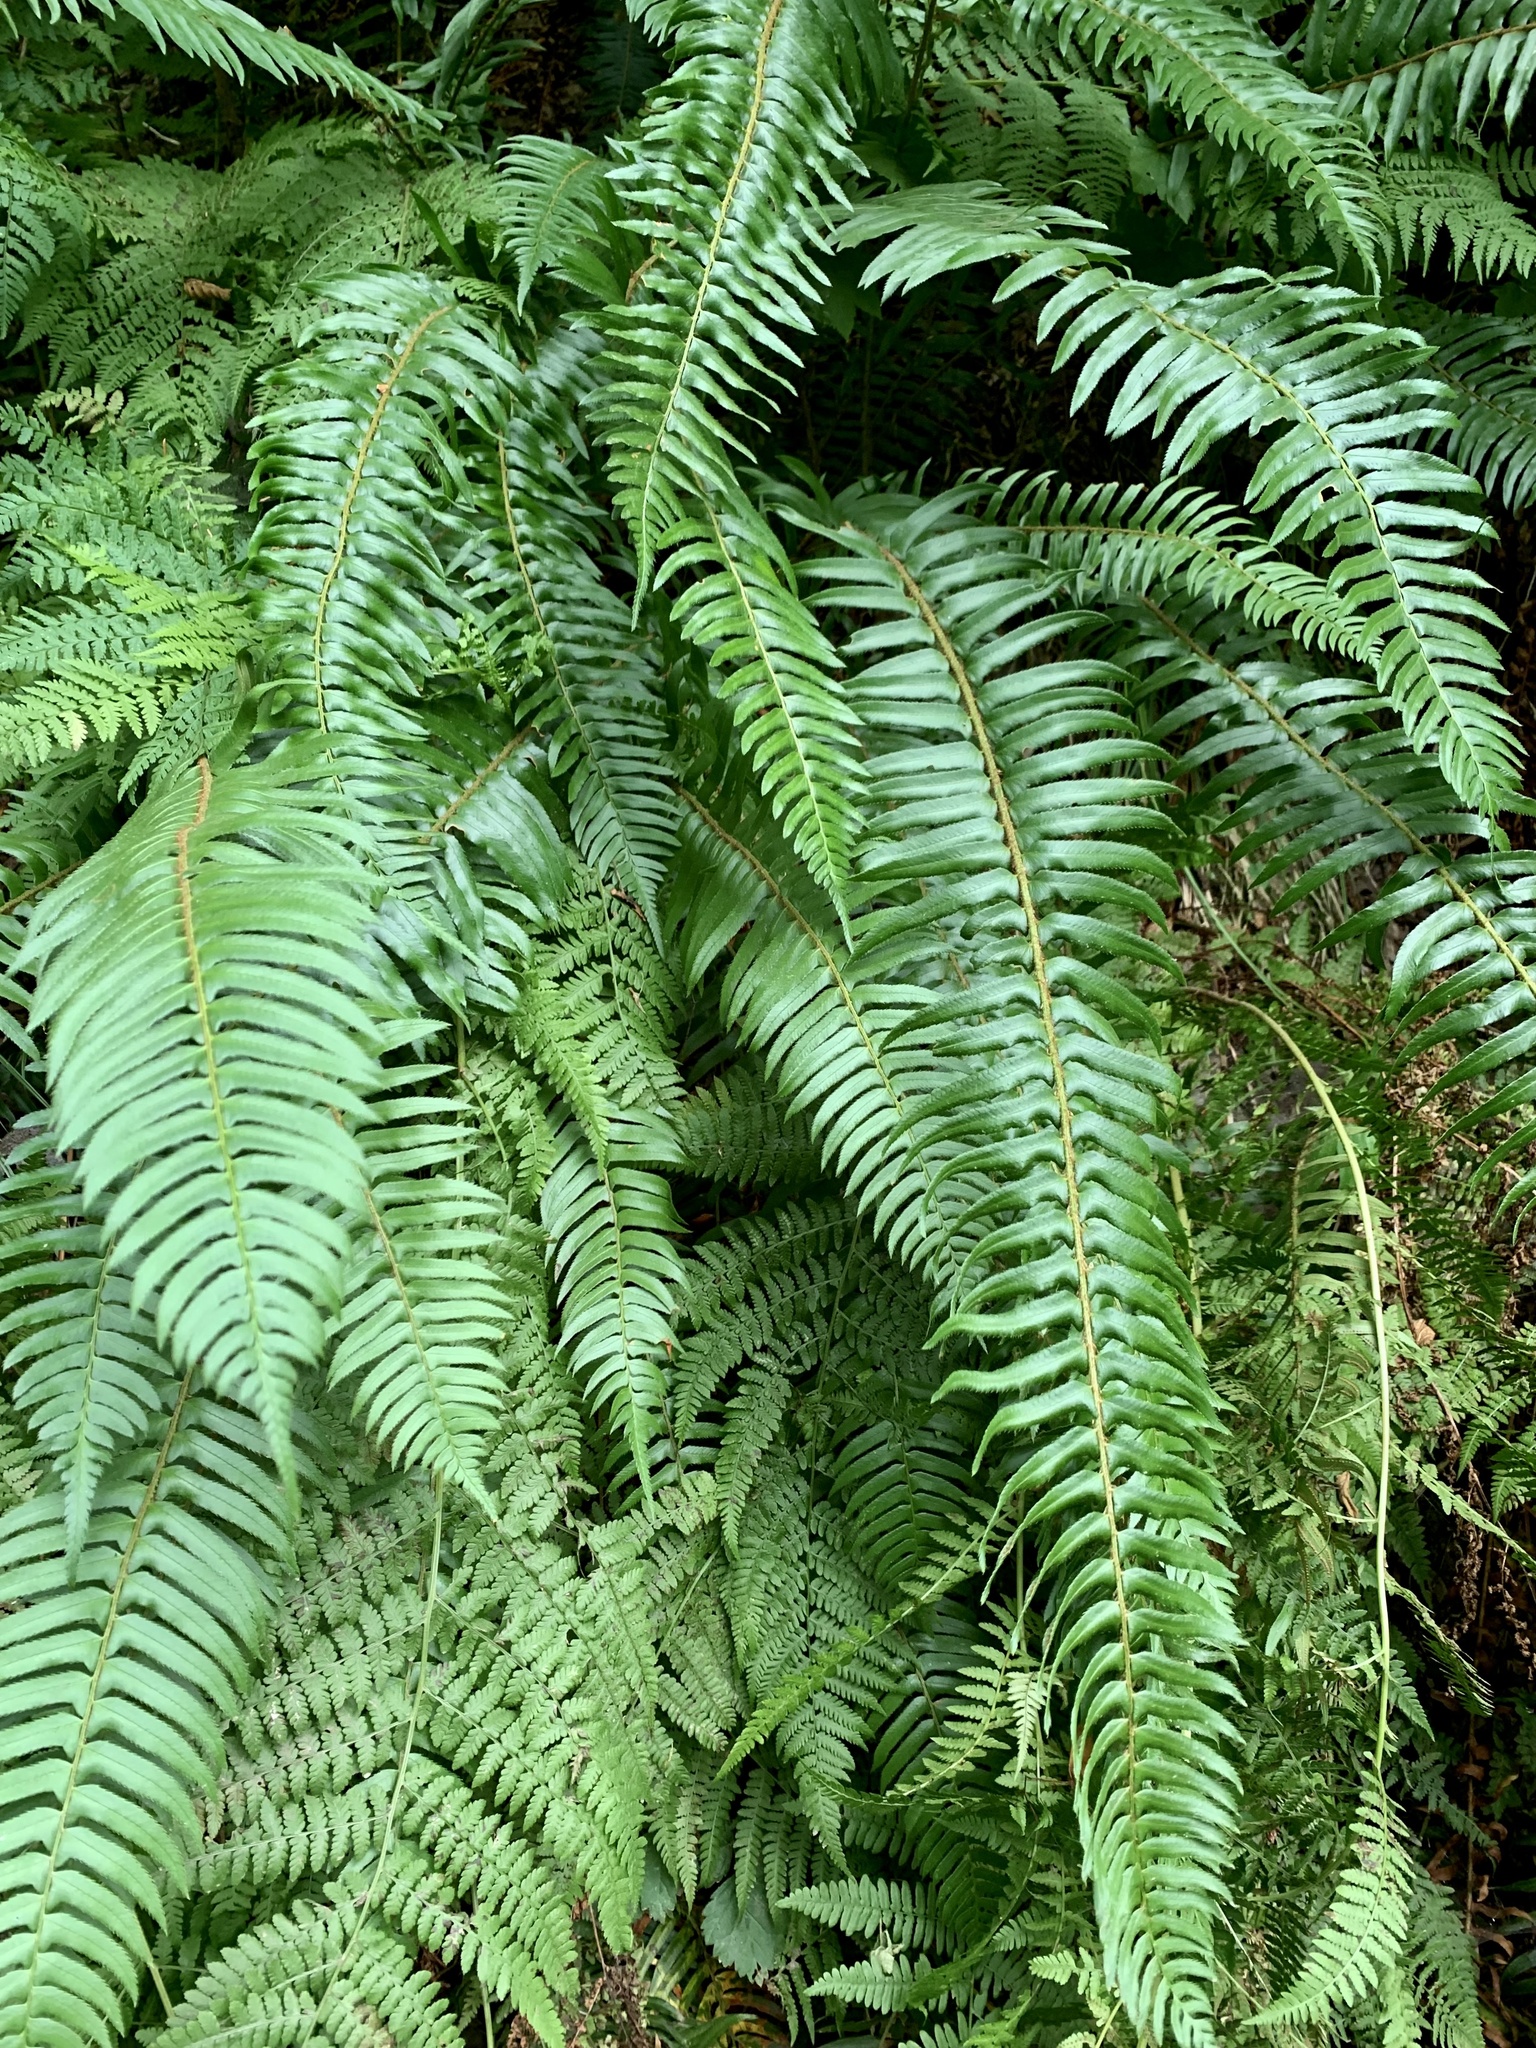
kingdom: Plantae
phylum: Tracheophyta
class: Polypodiopsida
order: Polypodiales
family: Dryopteridaceae
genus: Polystichum
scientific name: Polystichum munitum
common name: Western sword-fern
